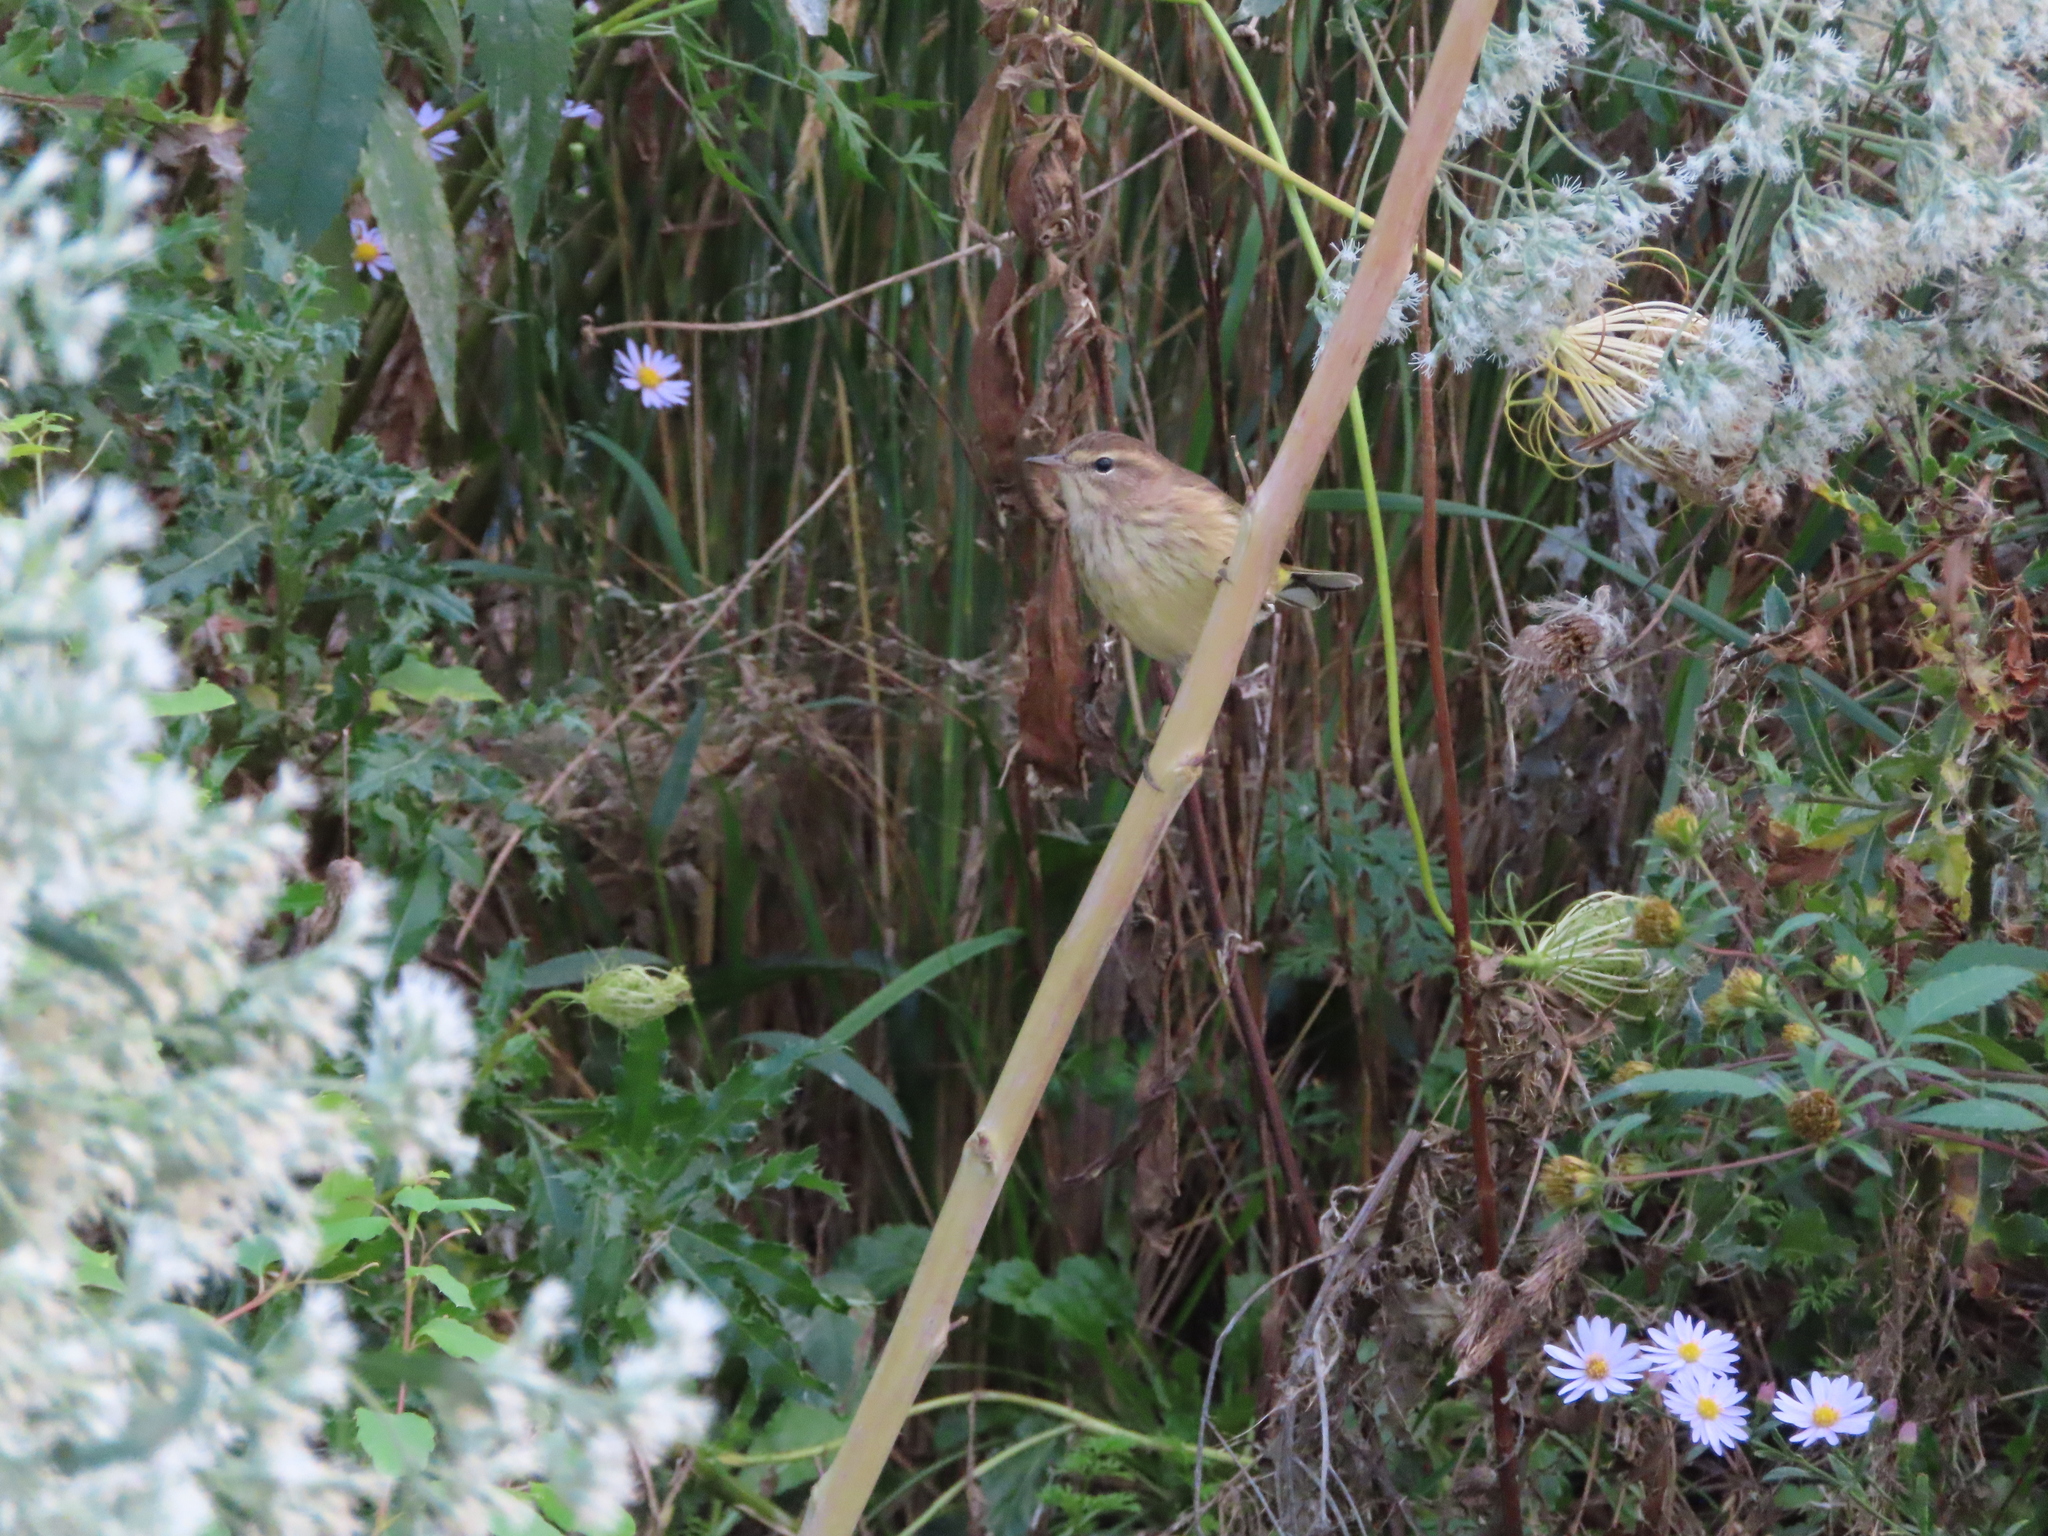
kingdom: Animalia
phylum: Chordata
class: Aves
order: Passeriformes
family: Parulidae
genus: Setophaga
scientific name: Setophaga palmarum
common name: Palm warbler
